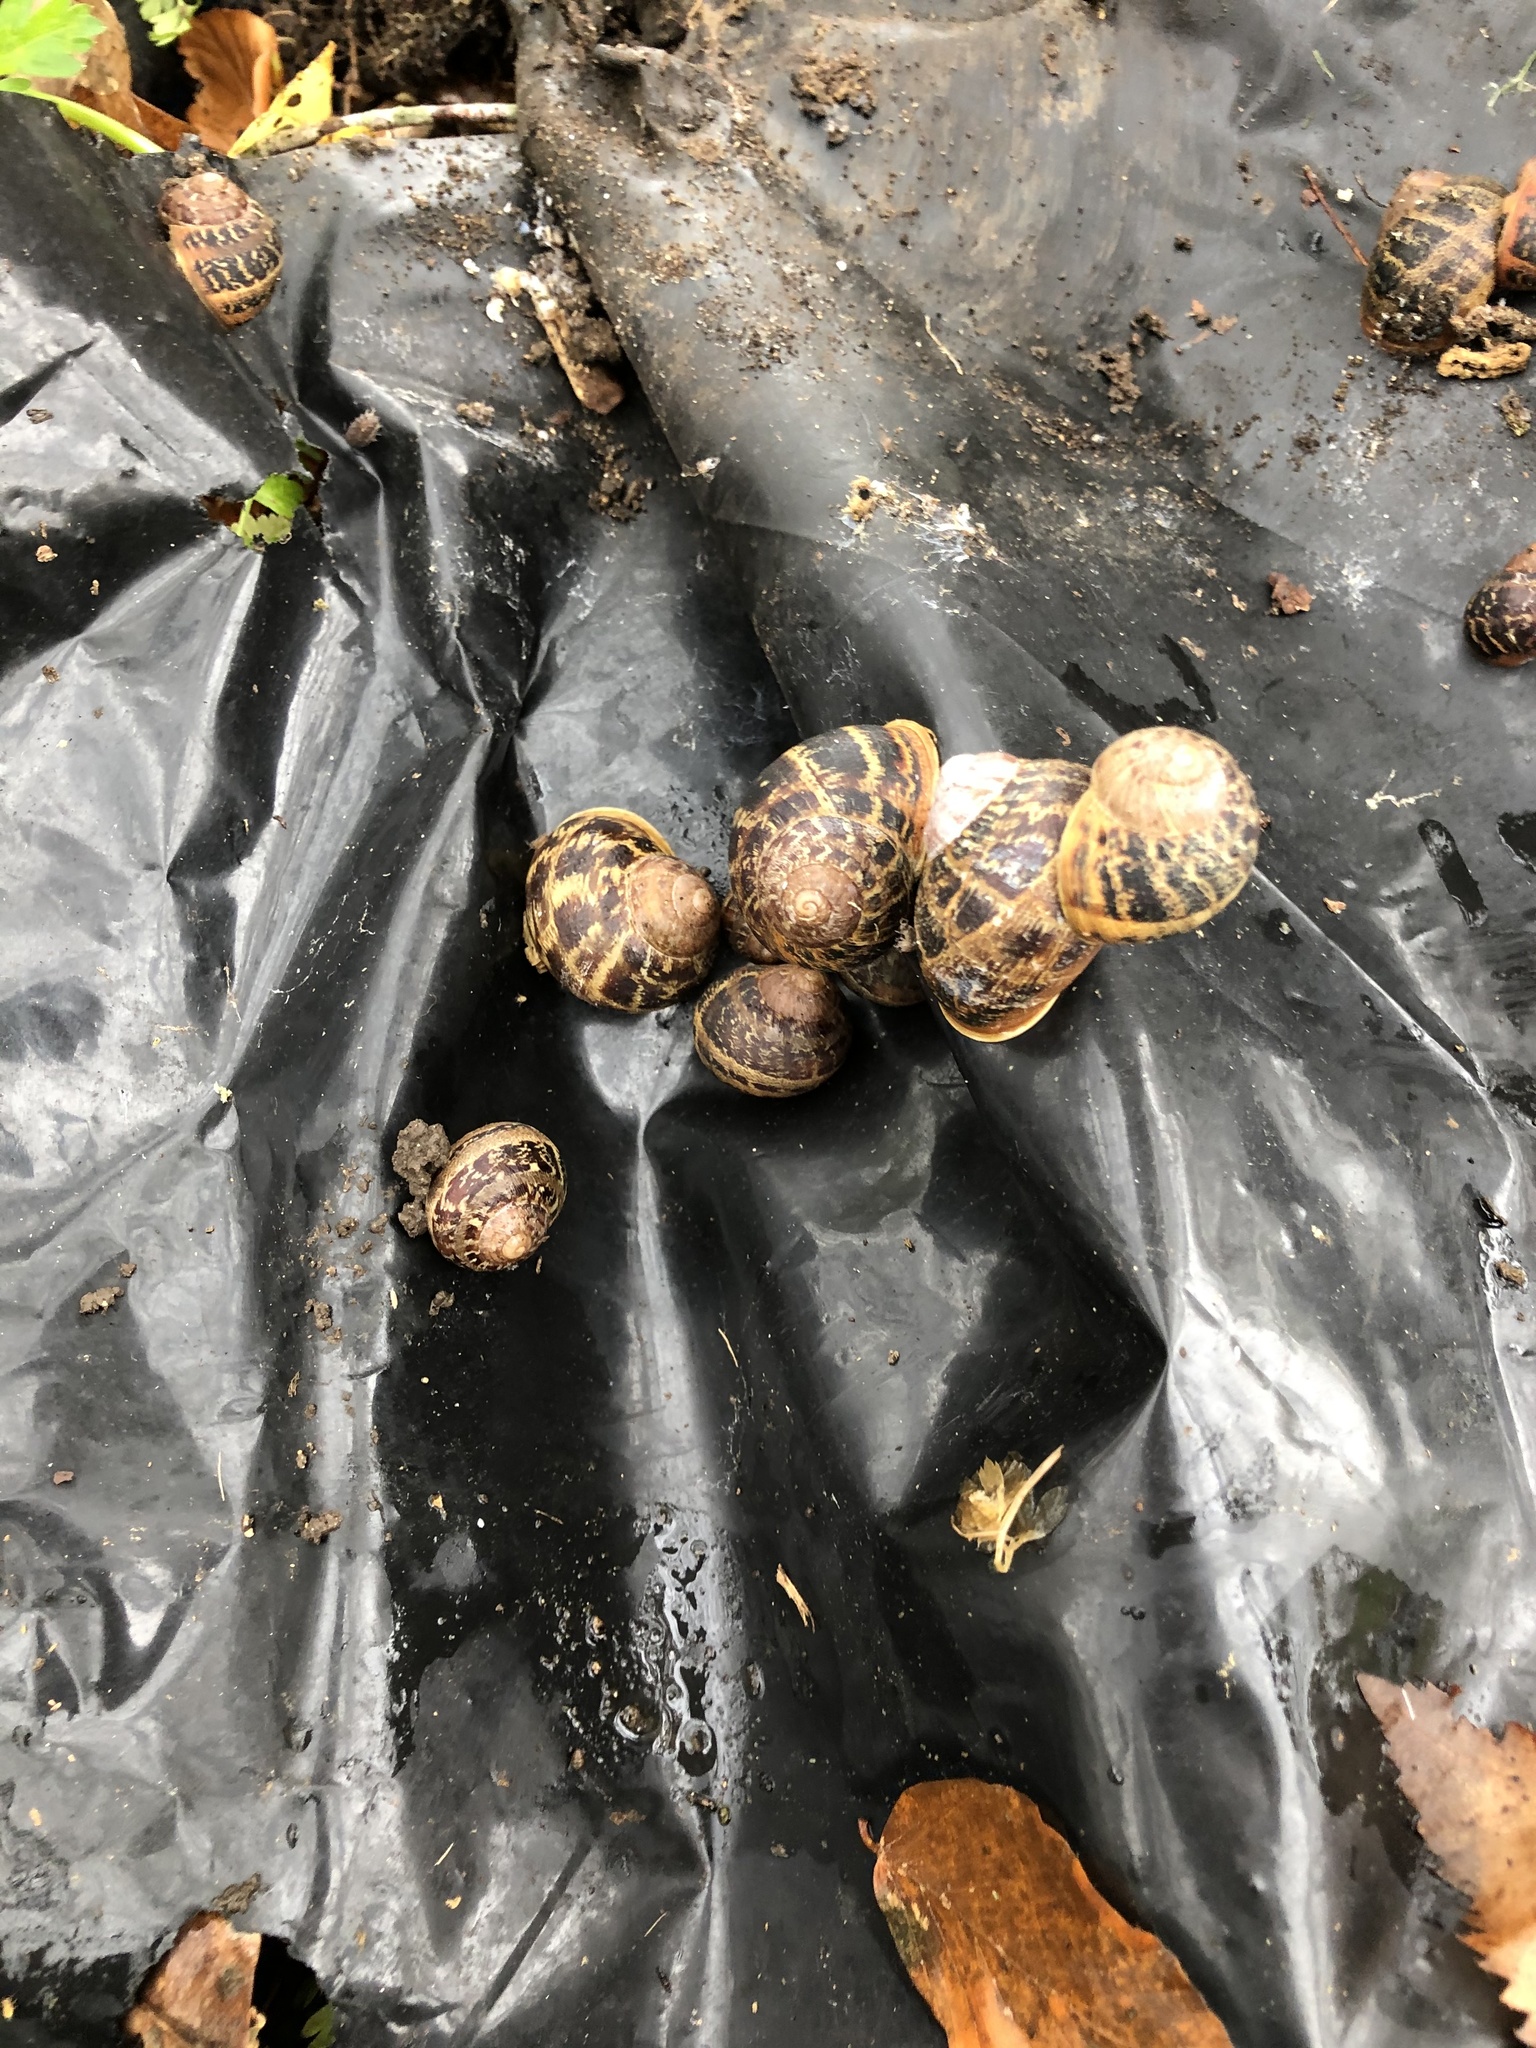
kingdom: Animalia
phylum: Mollusca
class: Gastropoda
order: Stylommatophora
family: Helicidae
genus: Cornu
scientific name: Cornu aspersum
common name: Brown garden snail
